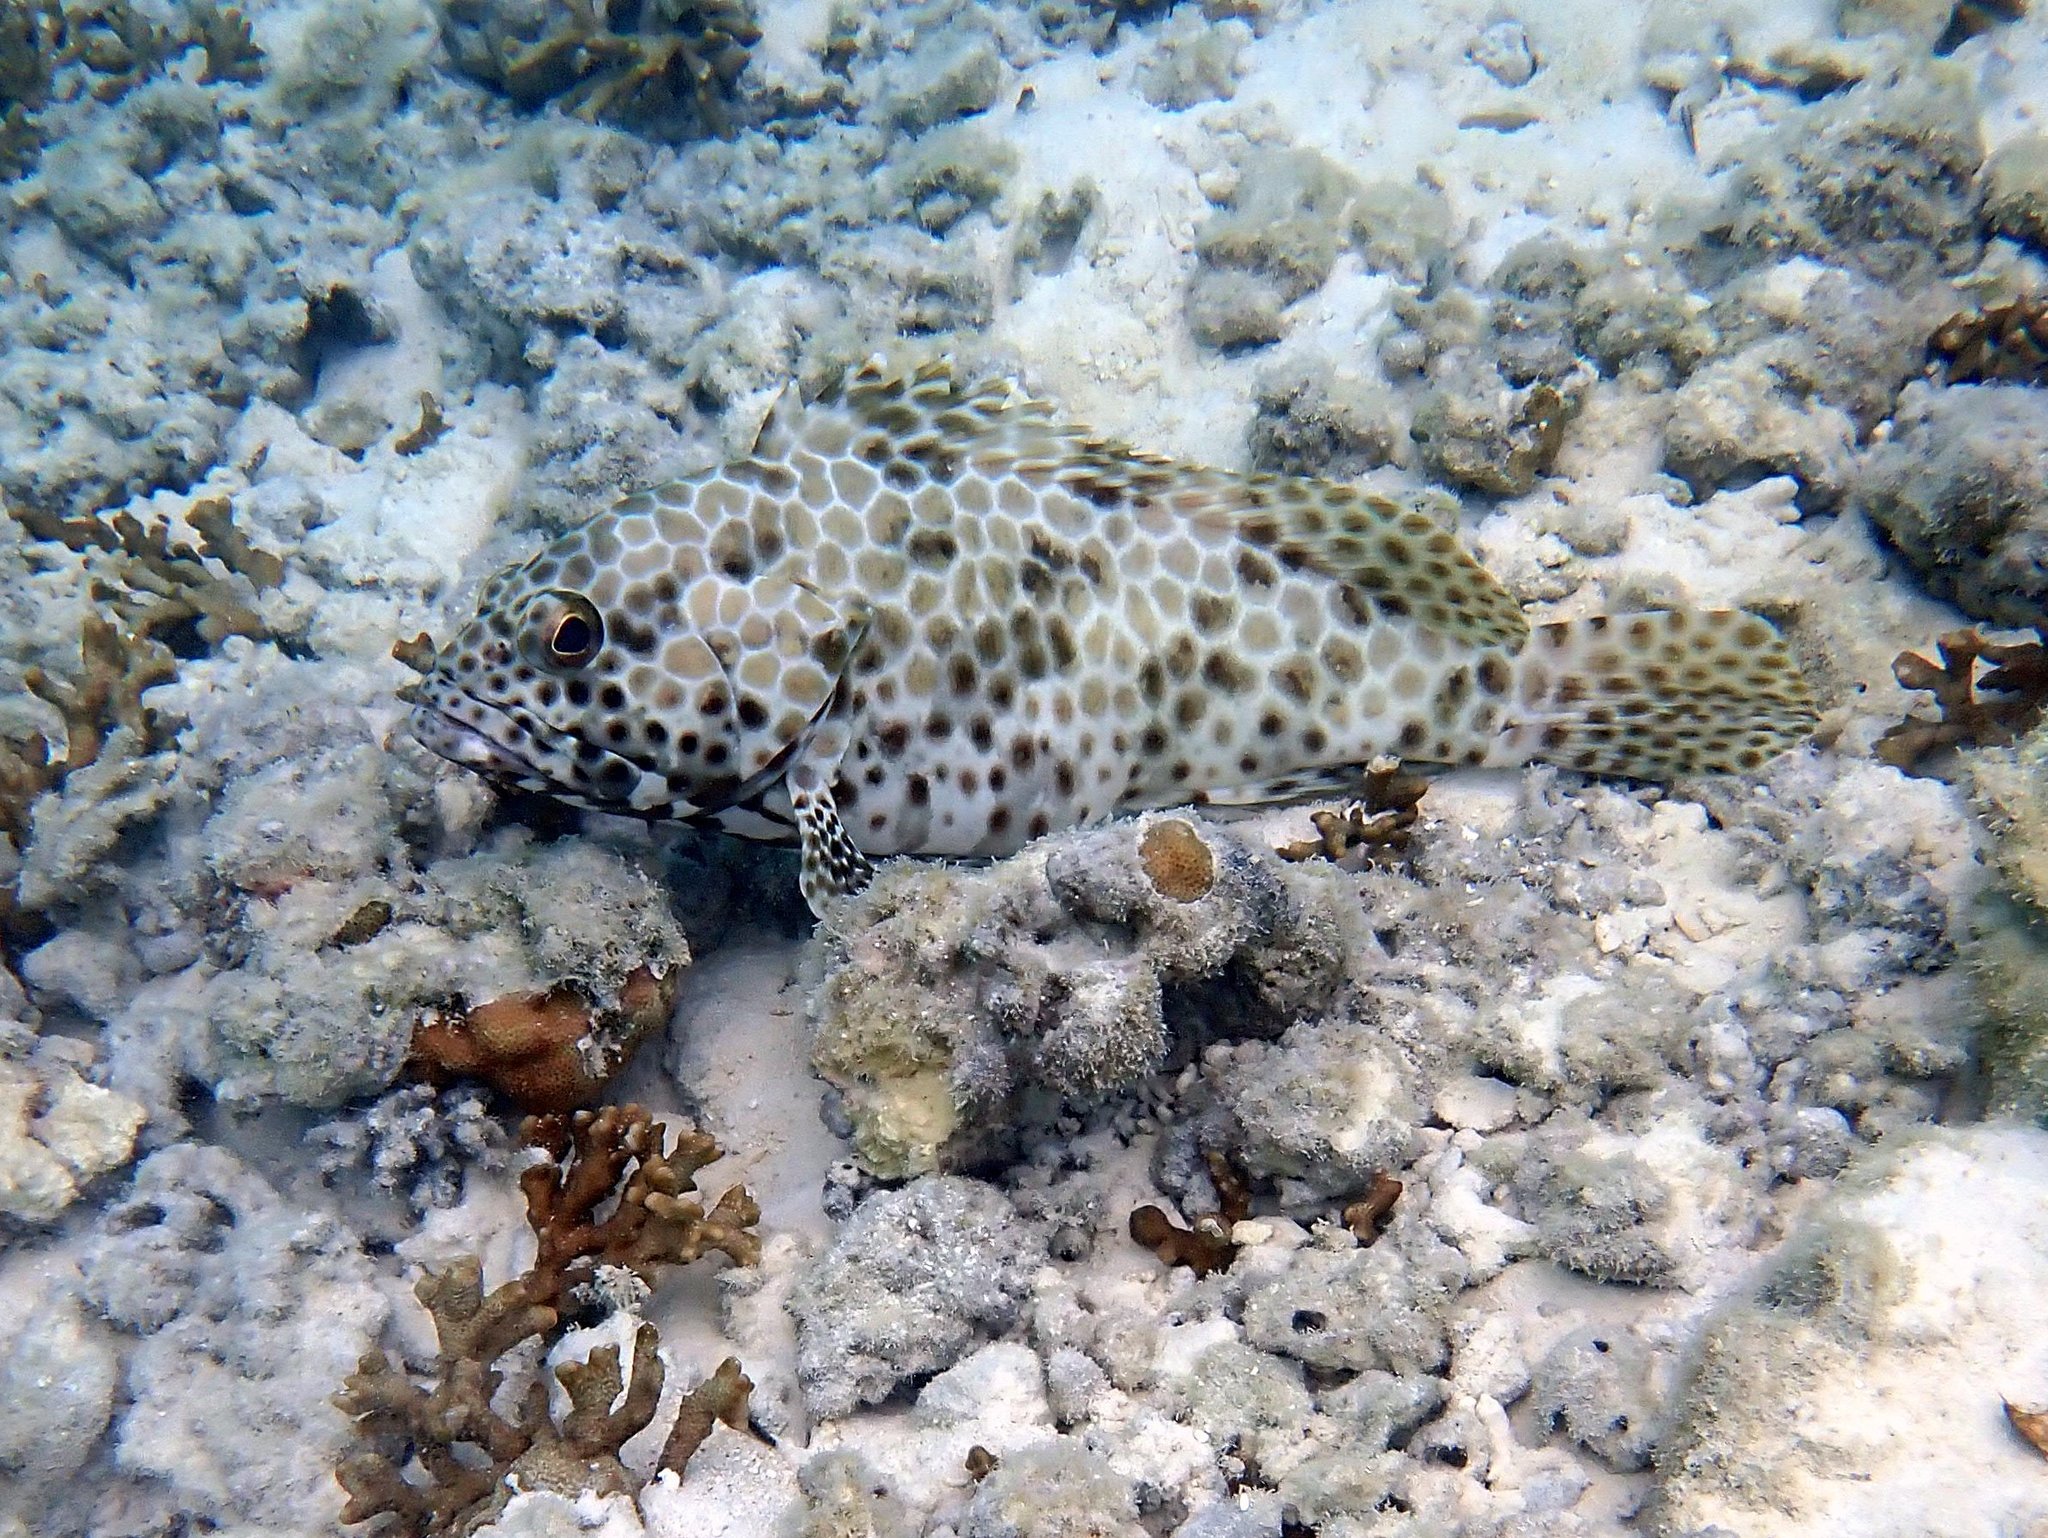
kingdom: Animalia
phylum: Chordata
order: Perciformes
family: Serranidae
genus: Epinephelus
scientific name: Epinephelus quoyanus
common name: Longfin grouper
